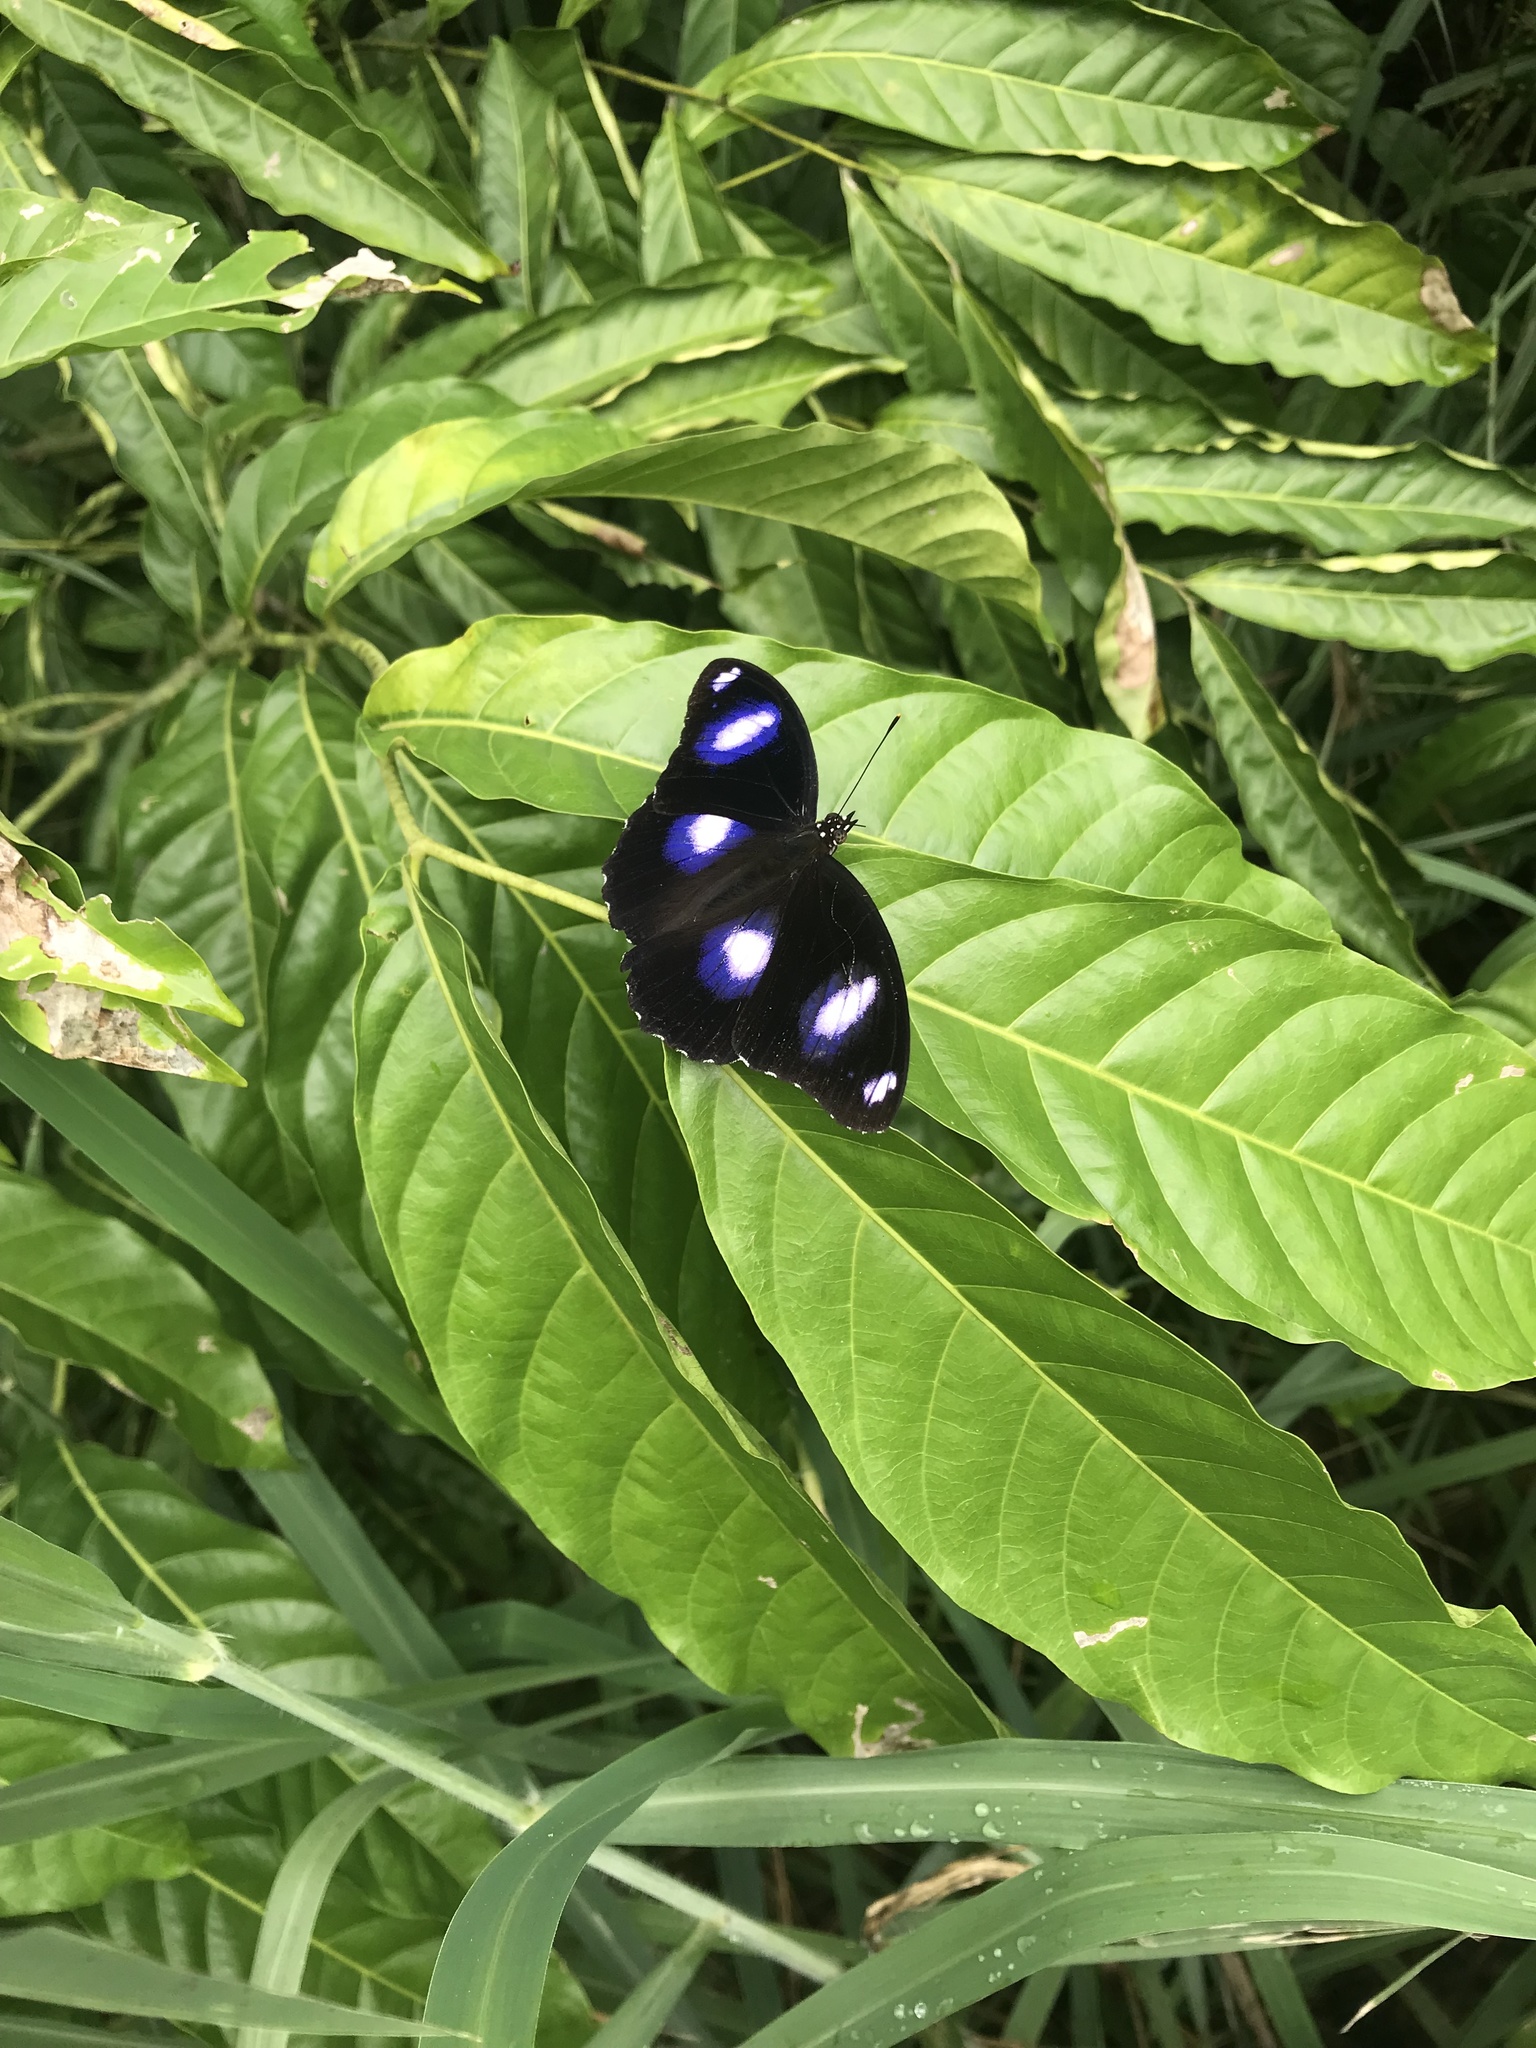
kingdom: Animalia
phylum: Arthropoda
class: Insecta
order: Lepidoptera
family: Nymphalidae
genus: Hypolimnas
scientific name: Hypolimnas bolina
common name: Great eggfly
